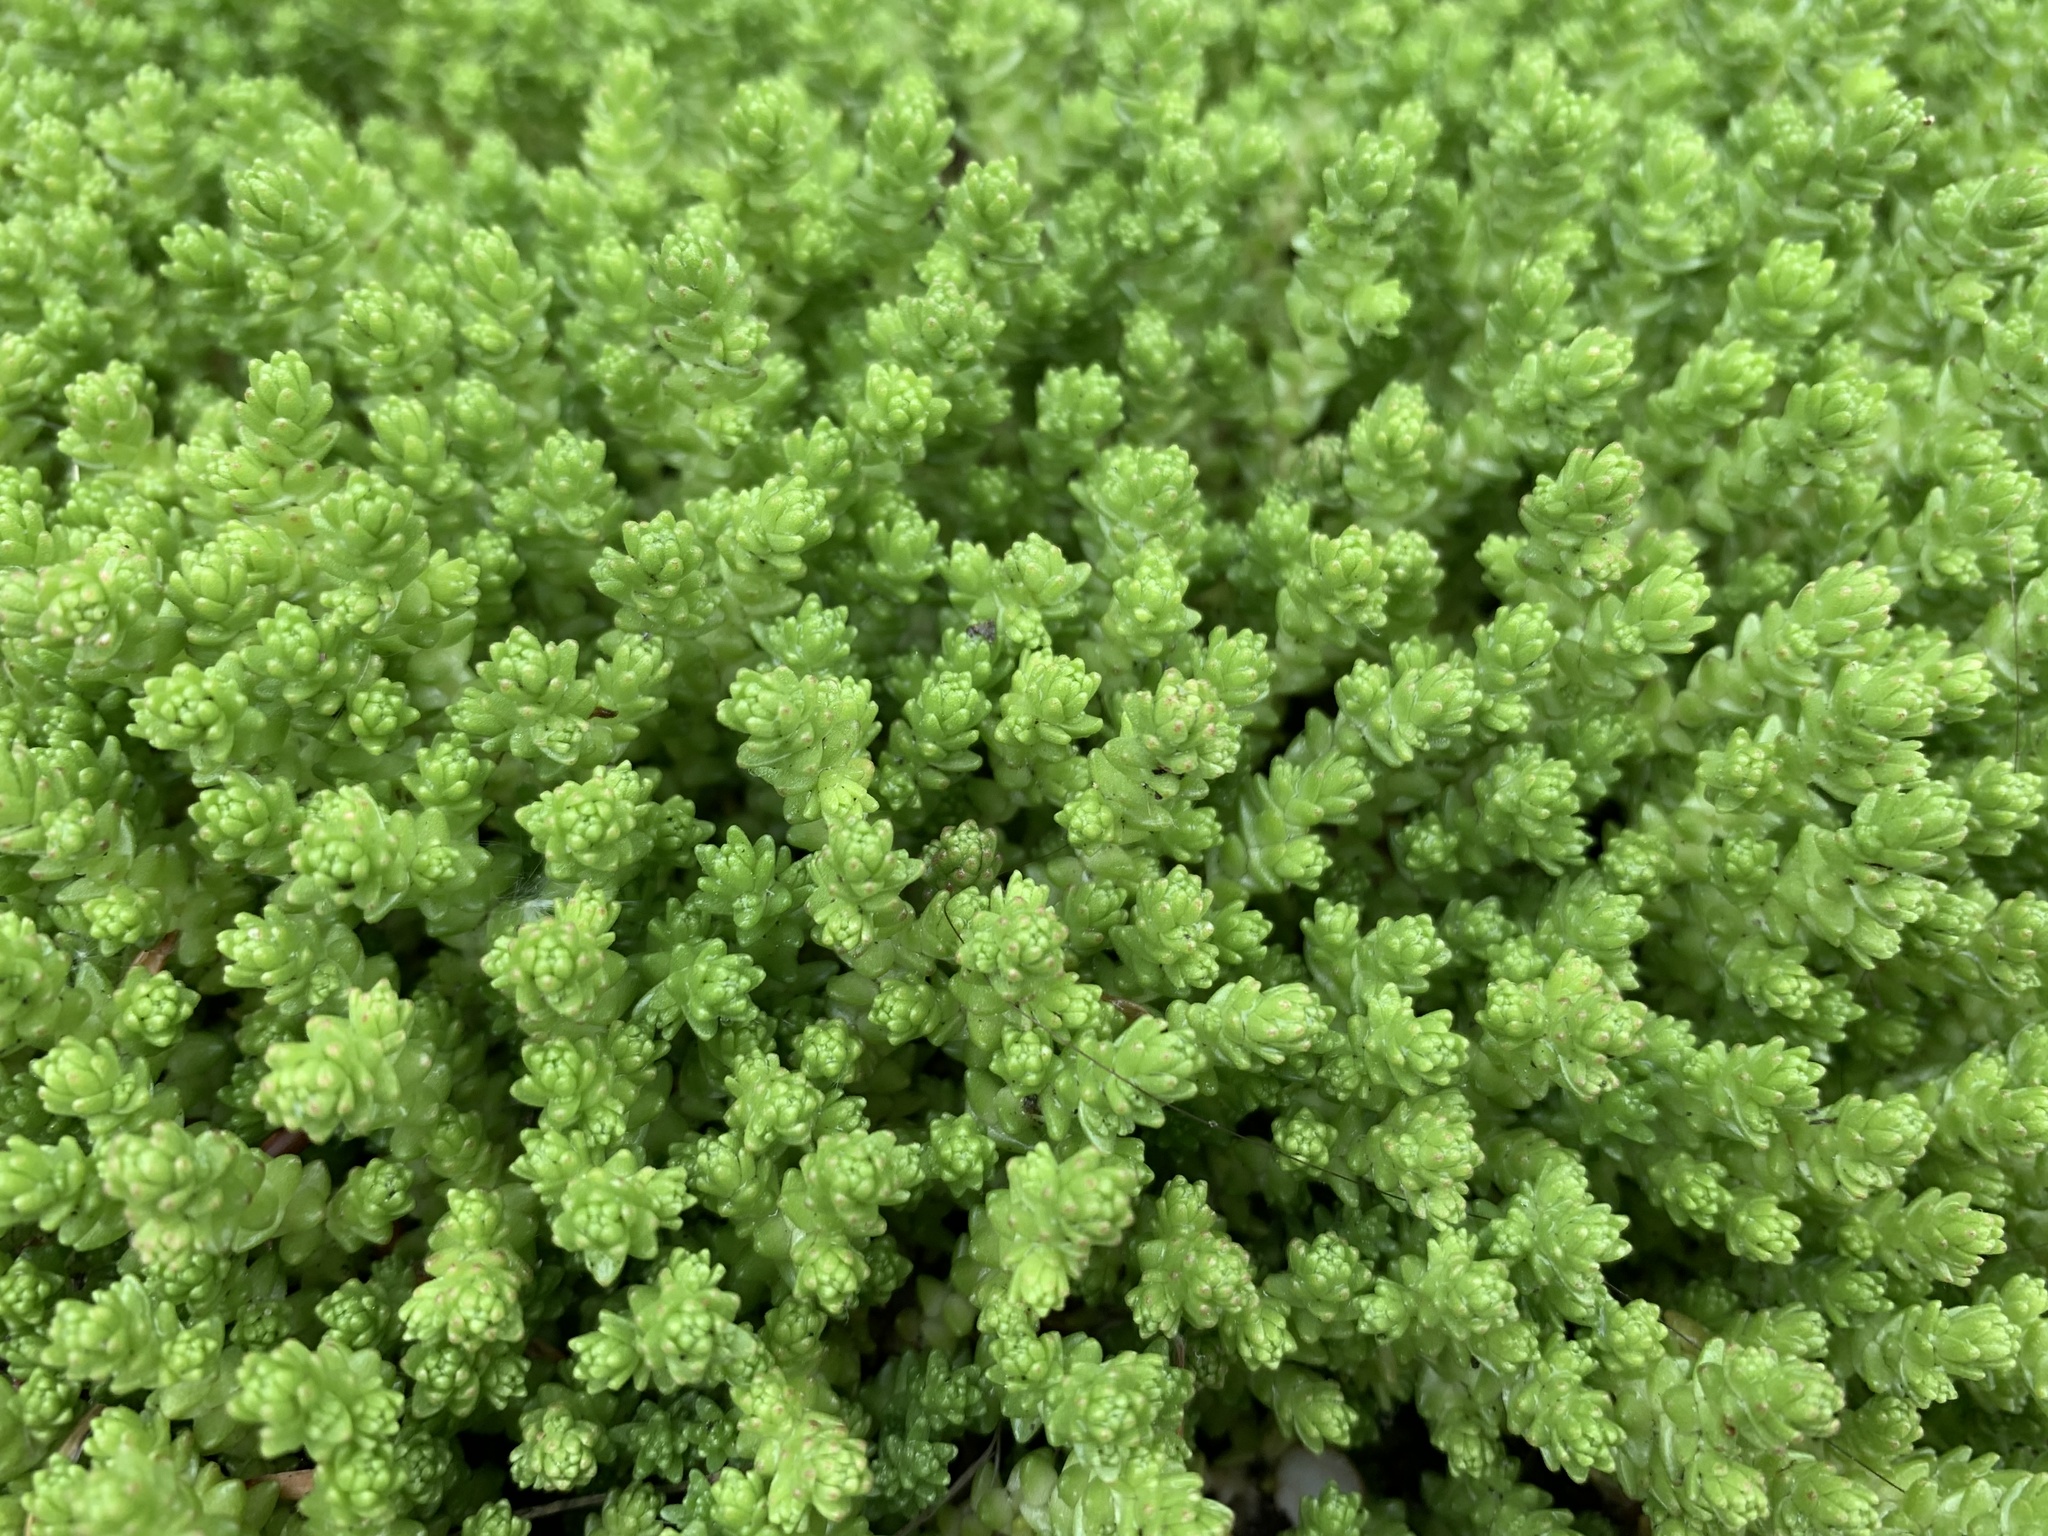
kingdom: Plantae
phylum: Tracheophyta
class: Magnoliopsida
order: Saxifragales
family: Crassulaceae
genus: Sedum
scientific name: Sedum acre
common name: Biting stonecrop
